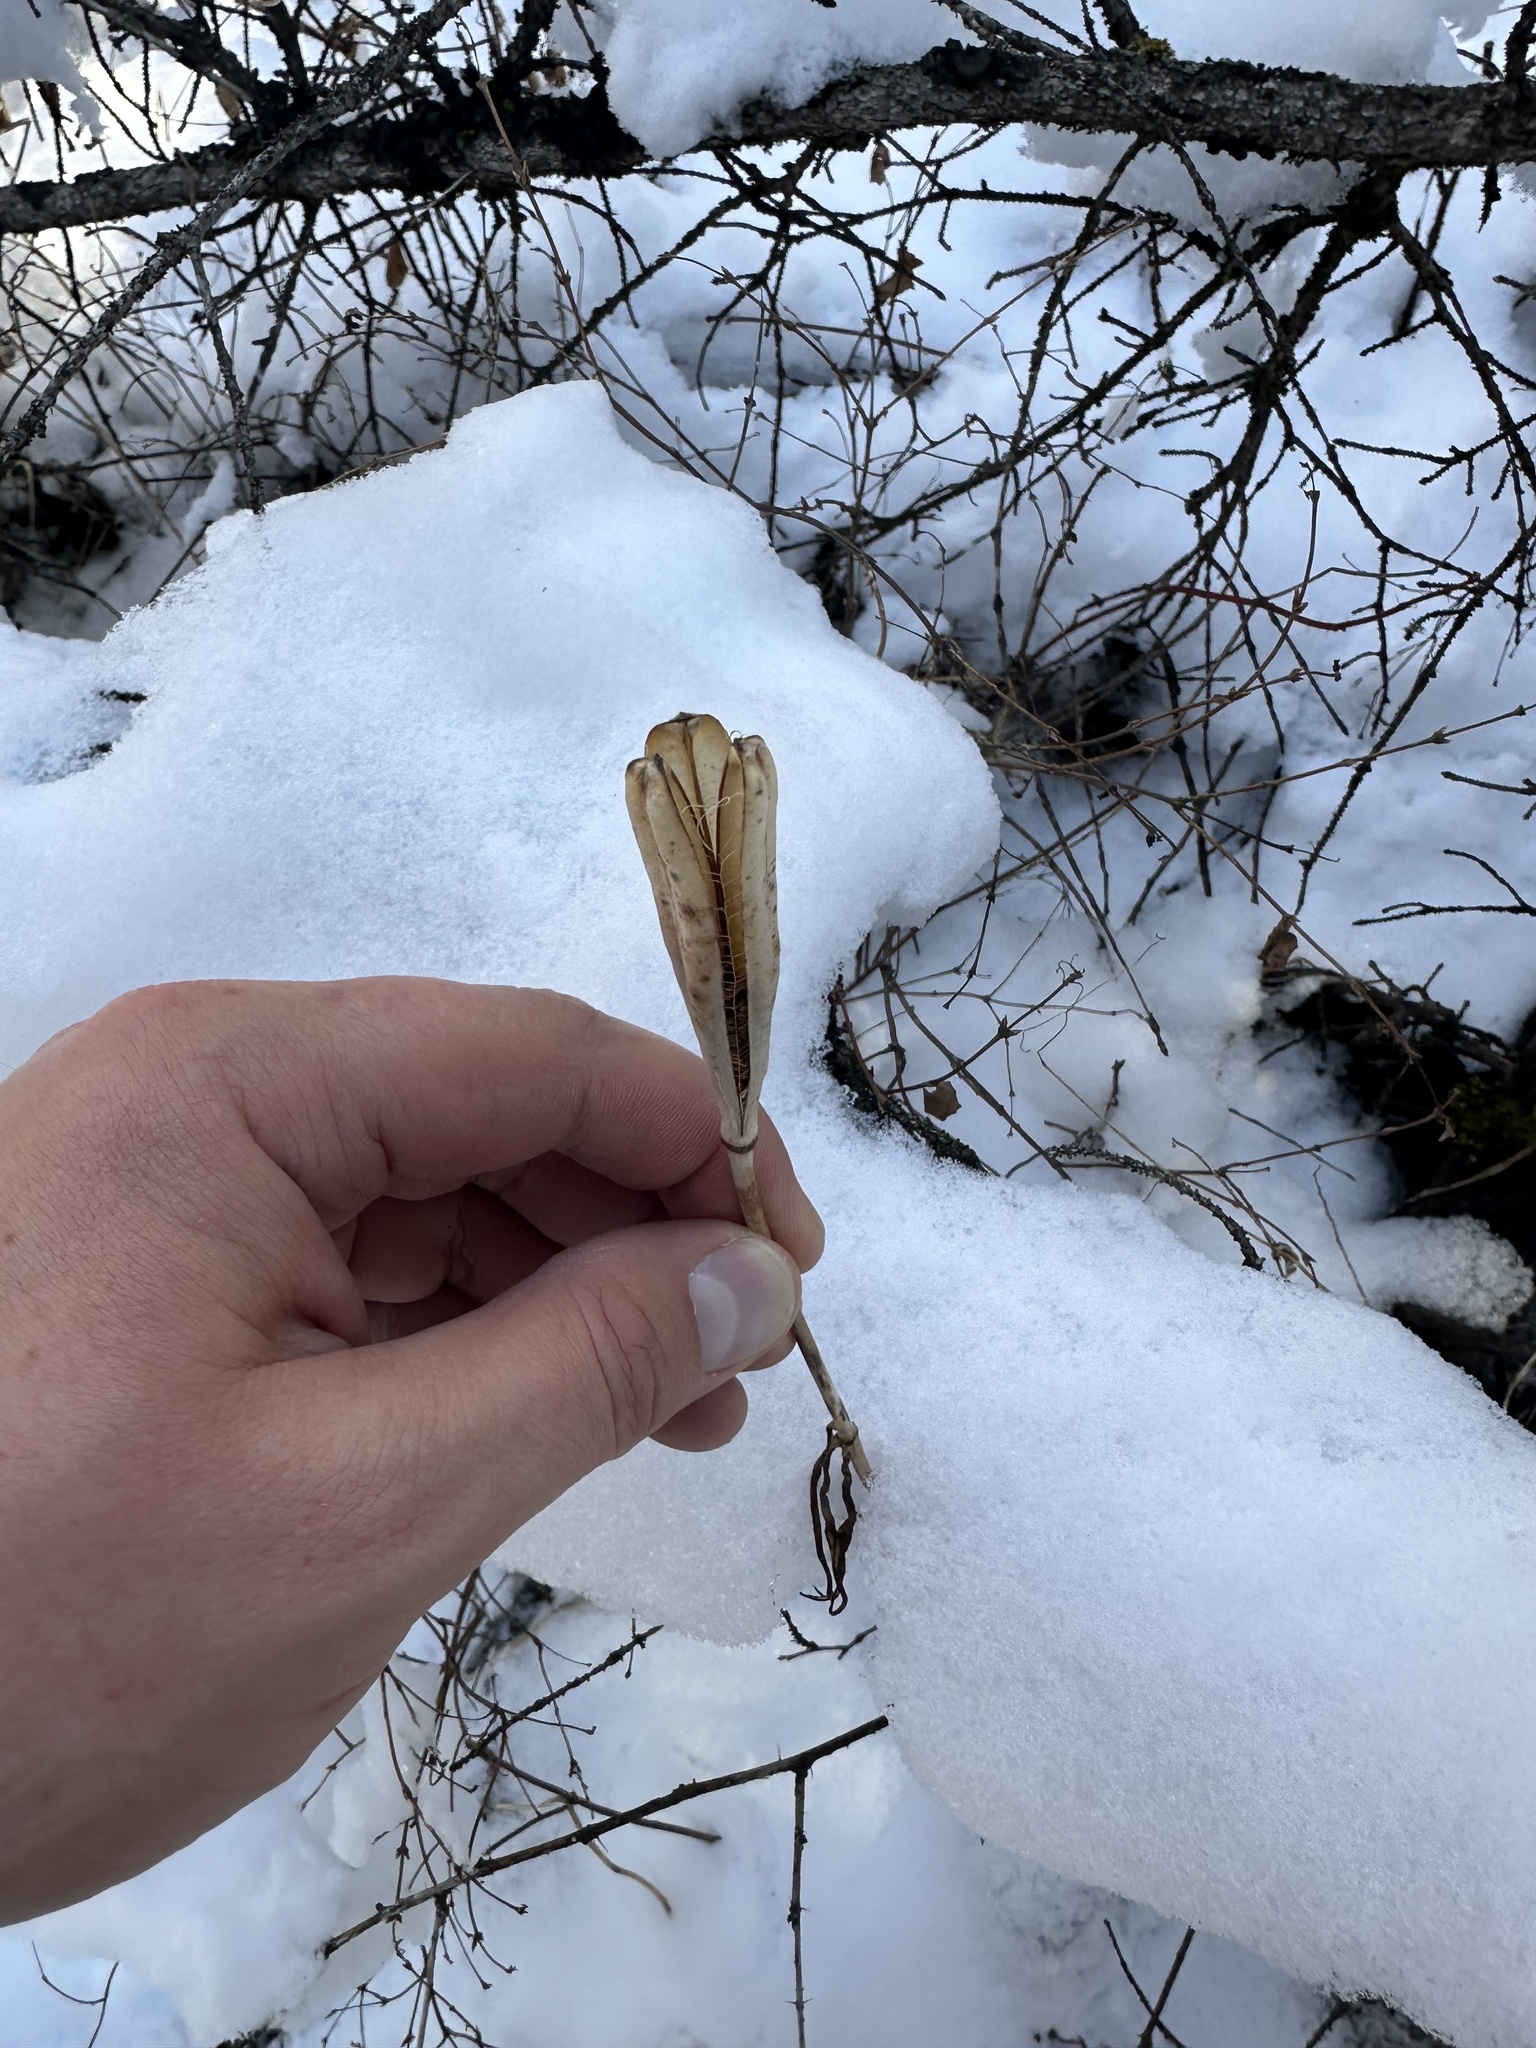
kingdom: Plantae
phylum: Tracheophyta
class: Liliopsida
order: Liliales
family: Liliaceae
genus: Lilium
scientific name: Lilium philadelphicum
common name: Red lily
